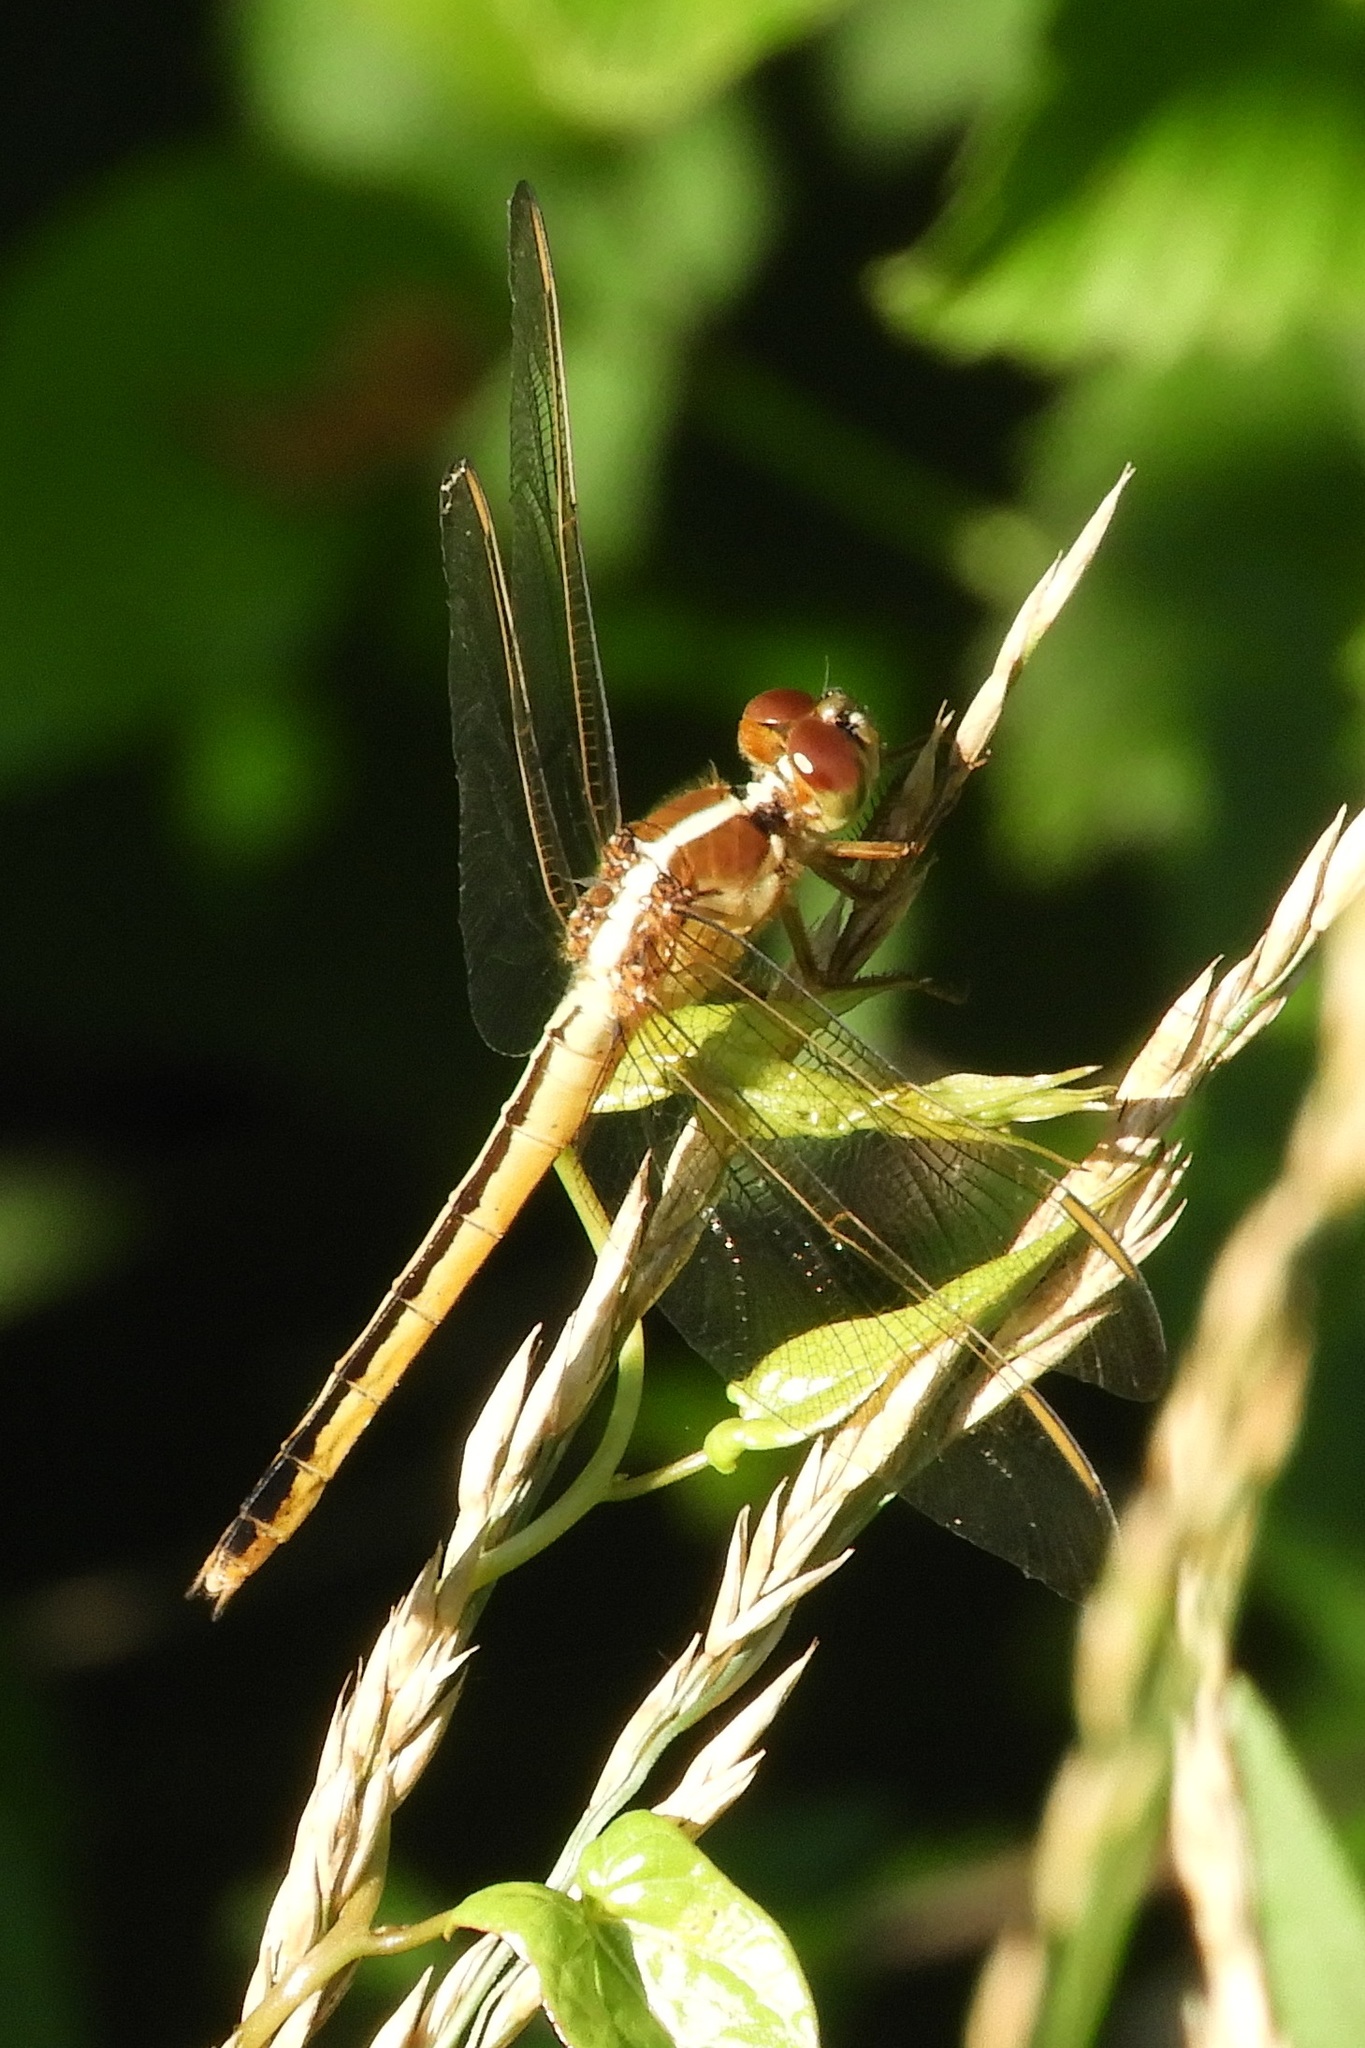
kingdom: Animalia
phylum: Arthropoda
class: Insecta
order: Odonata
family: Libellulidae
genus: Libellula
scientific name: Libellula needhami
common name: Needham's skimmer
